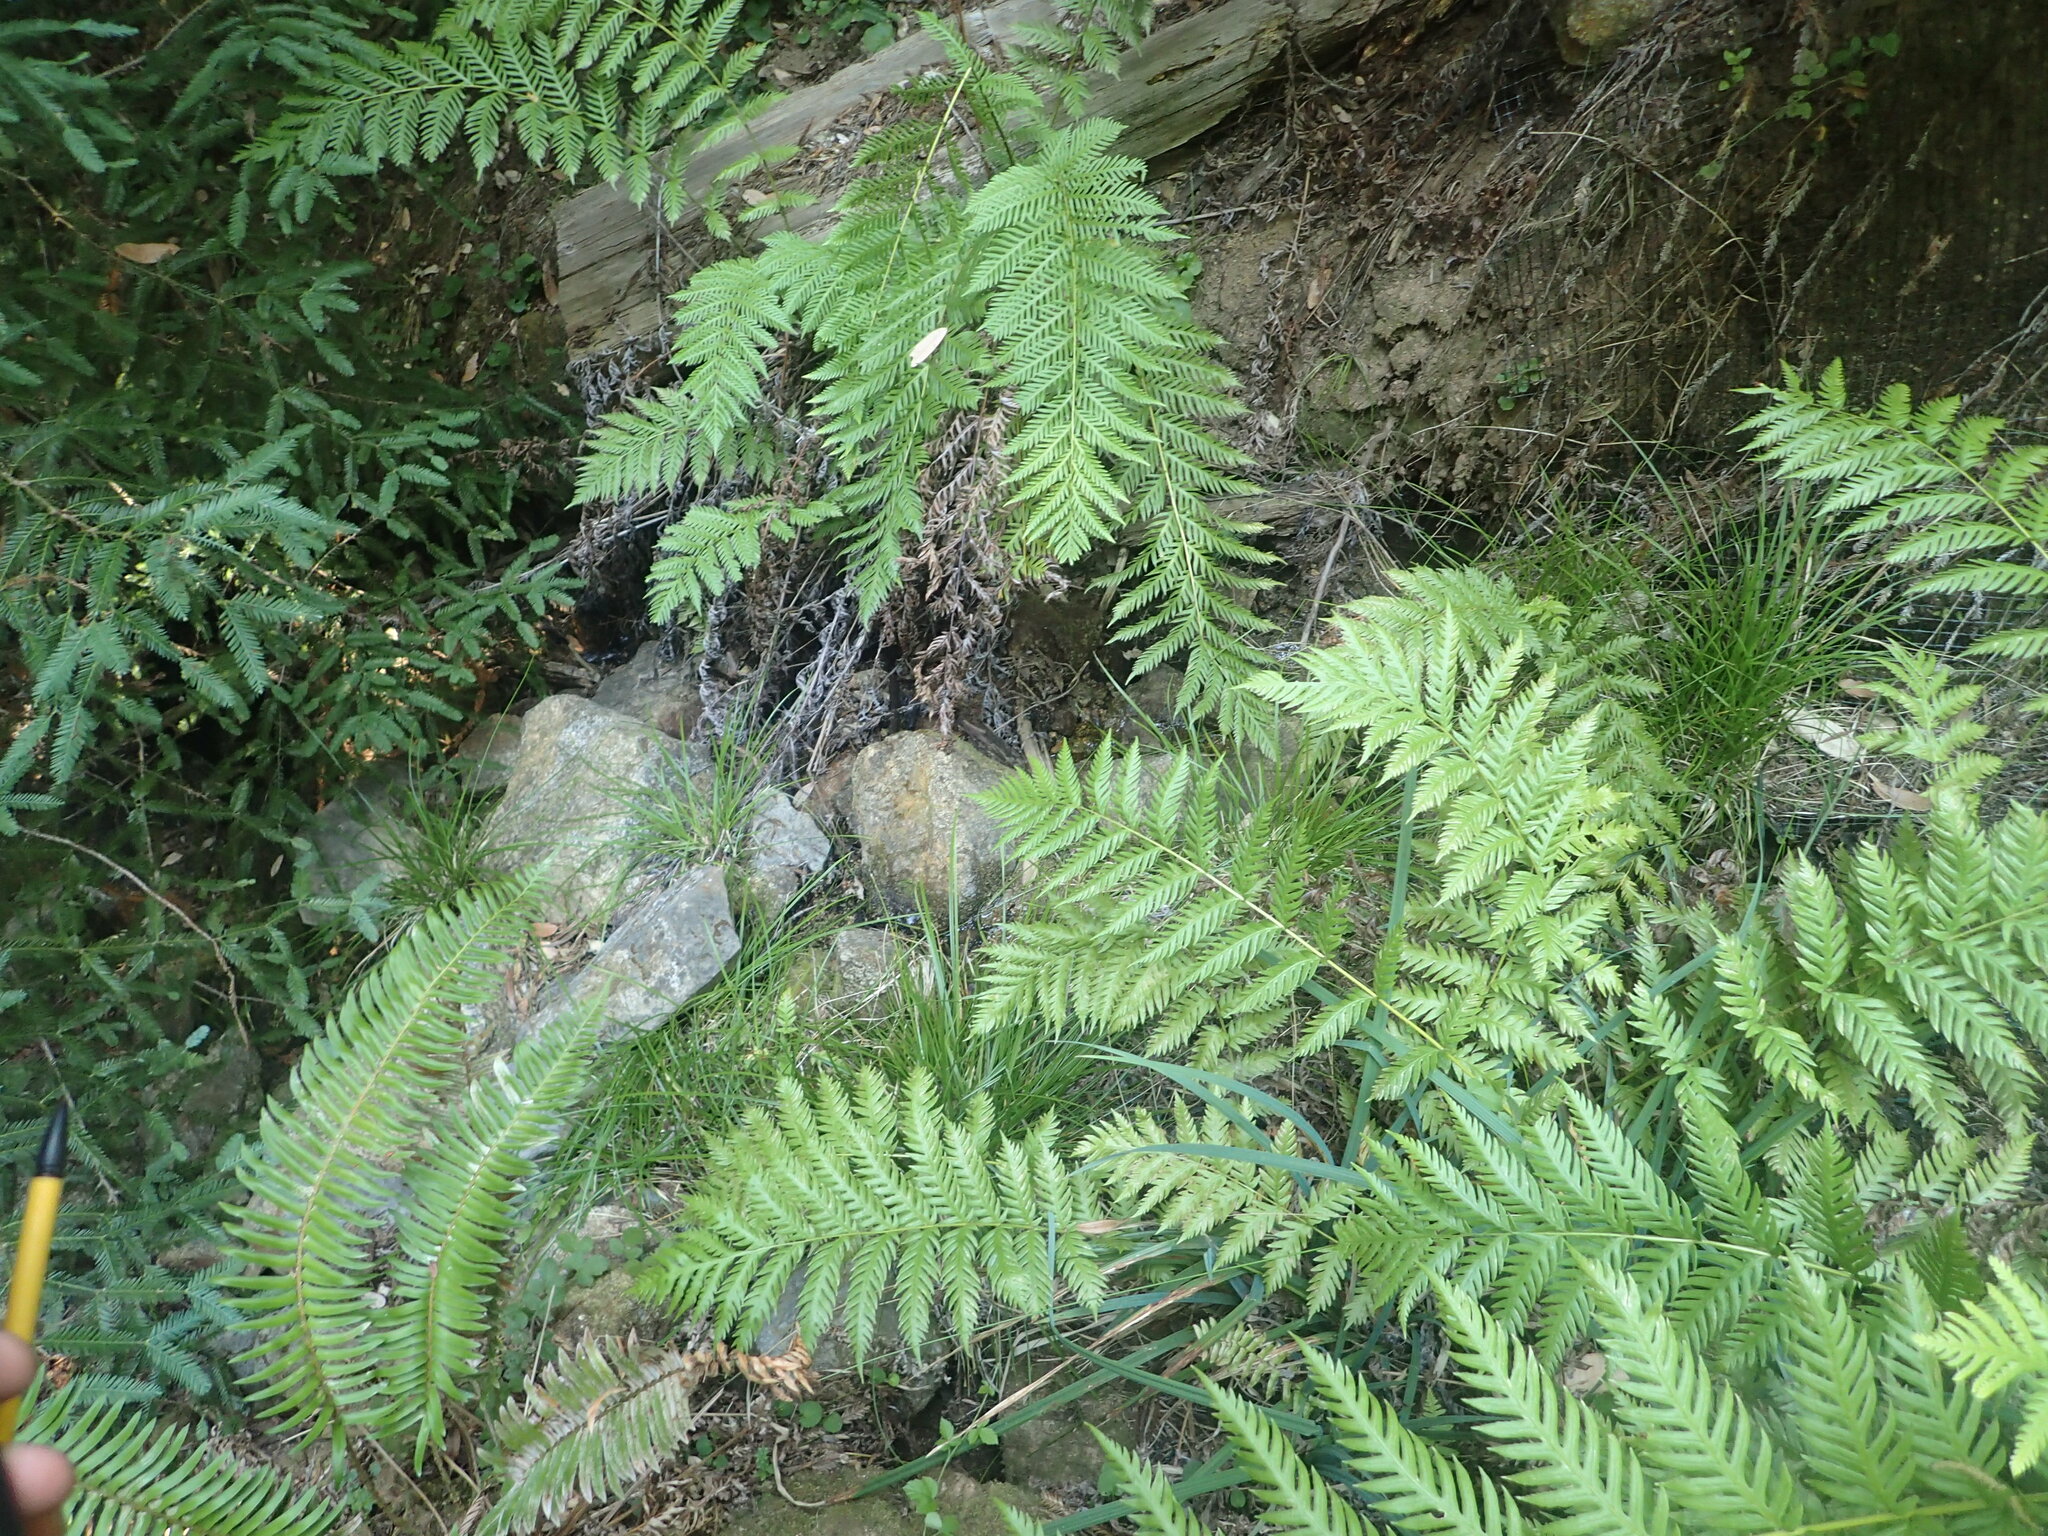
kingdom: Plantae
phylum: Tracheophyta
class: Polypodiopsida
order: Polypodiales
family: Blechnaceae
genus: Woodwardia
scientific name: Woodwardia fimbriata
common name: Giant chain fern
